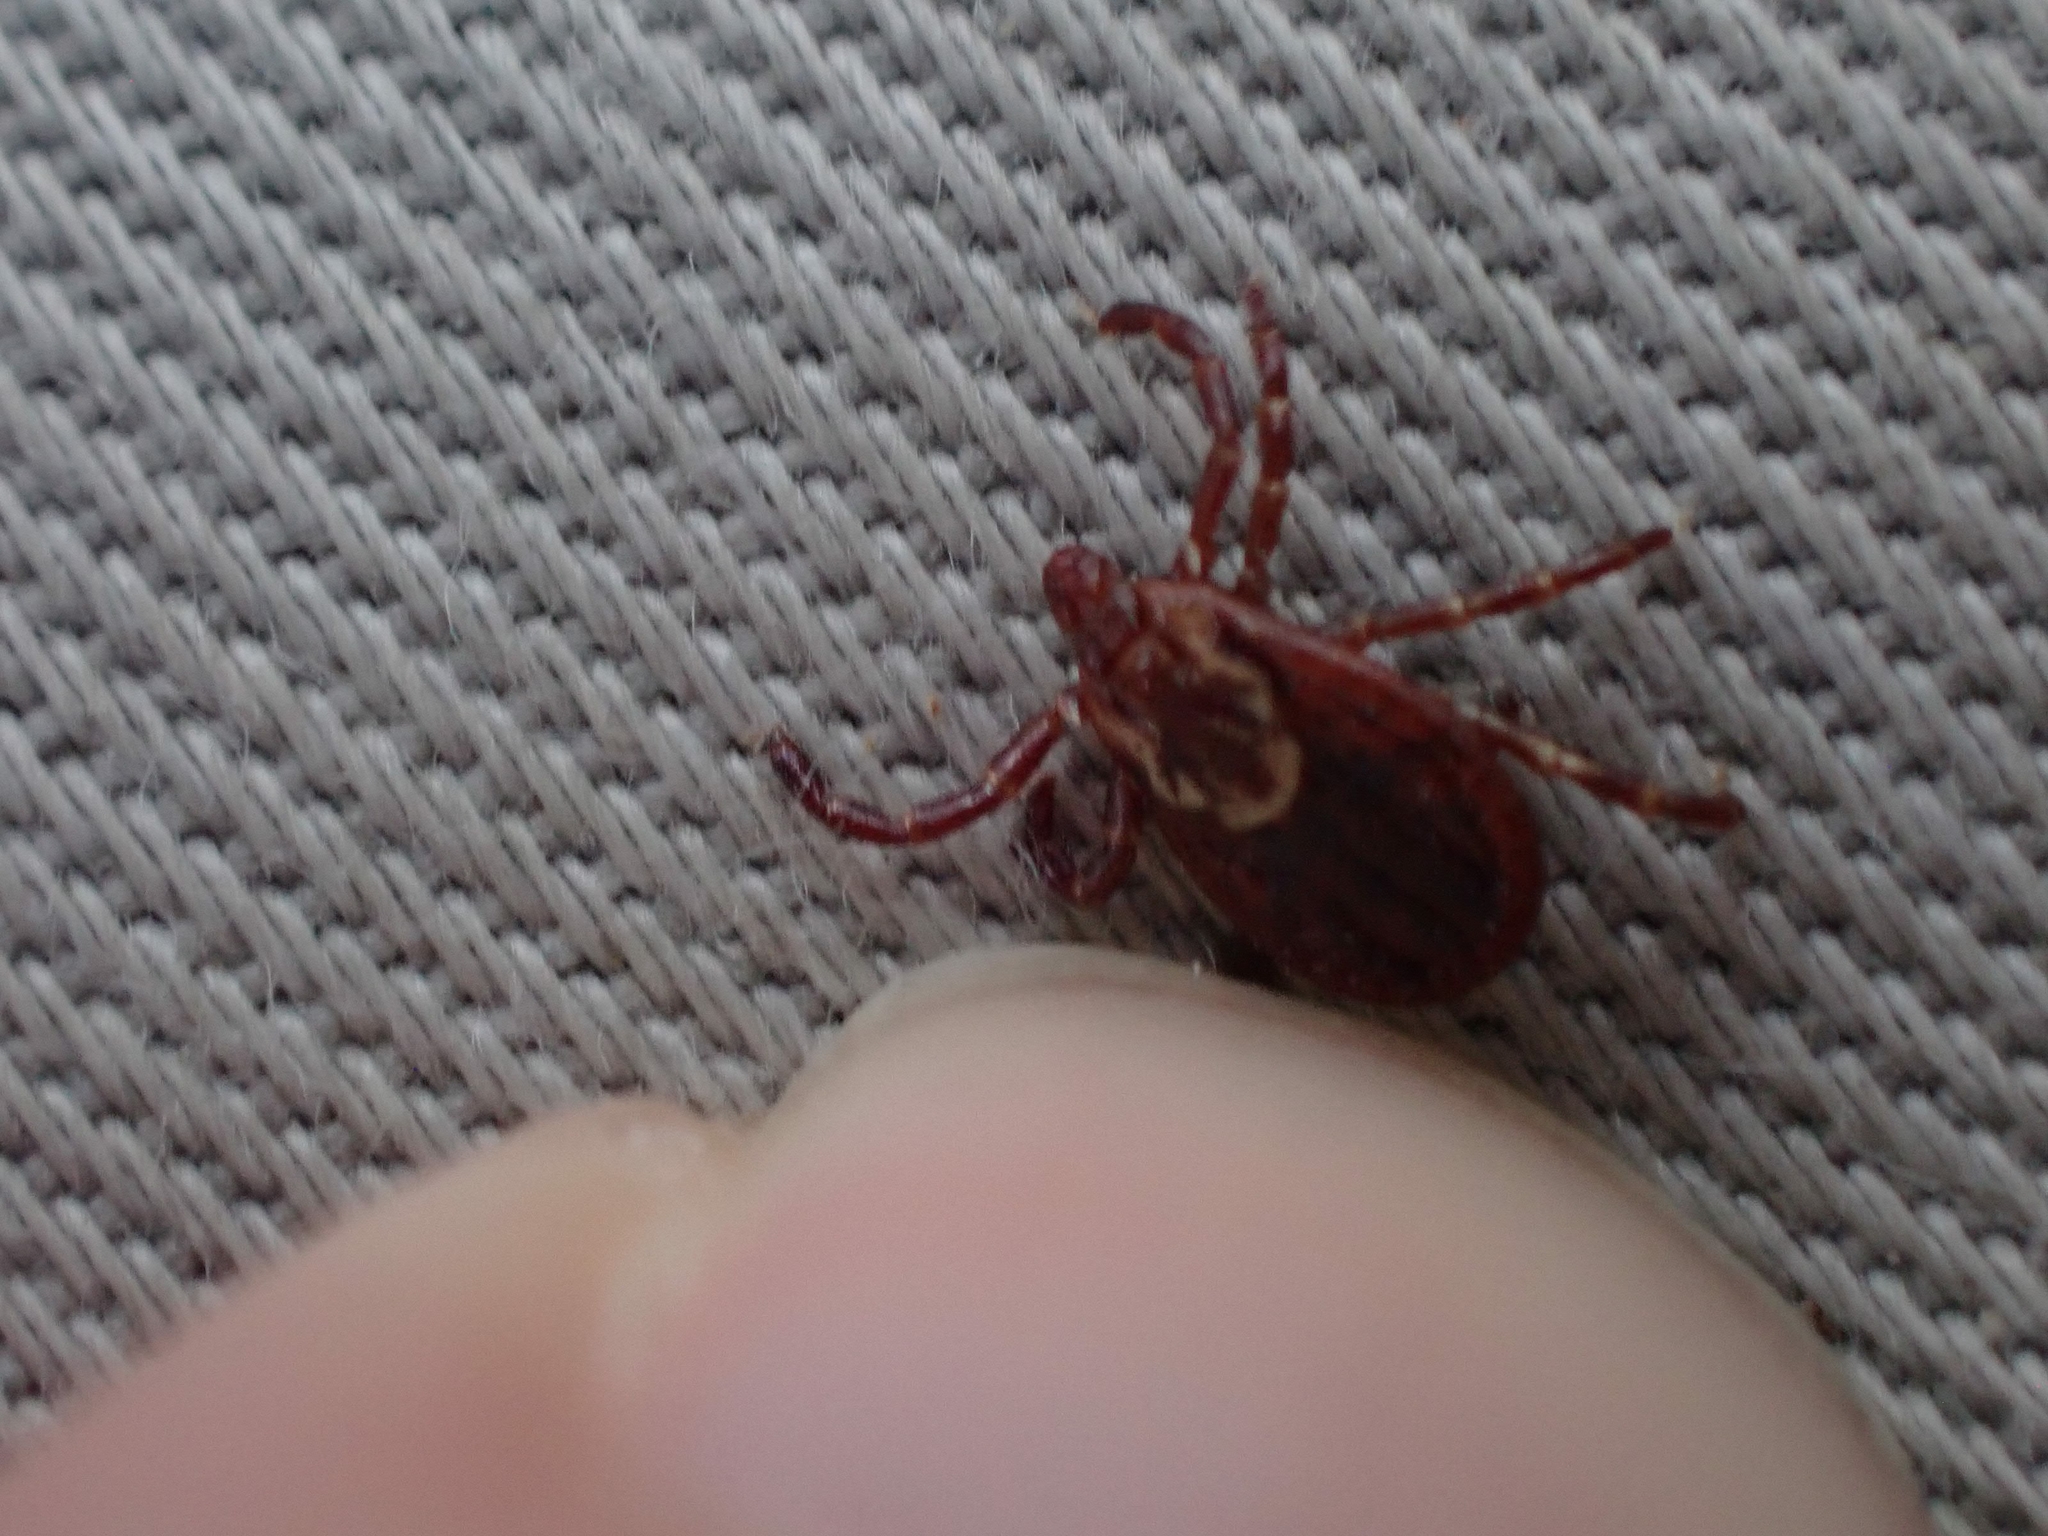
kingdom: Animalia
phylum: Arthropoda
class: Arachnida
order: Ixodida
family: Ixodidae
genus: Dermacentor
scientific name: Dermacentor variabilis
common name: American dog tick
